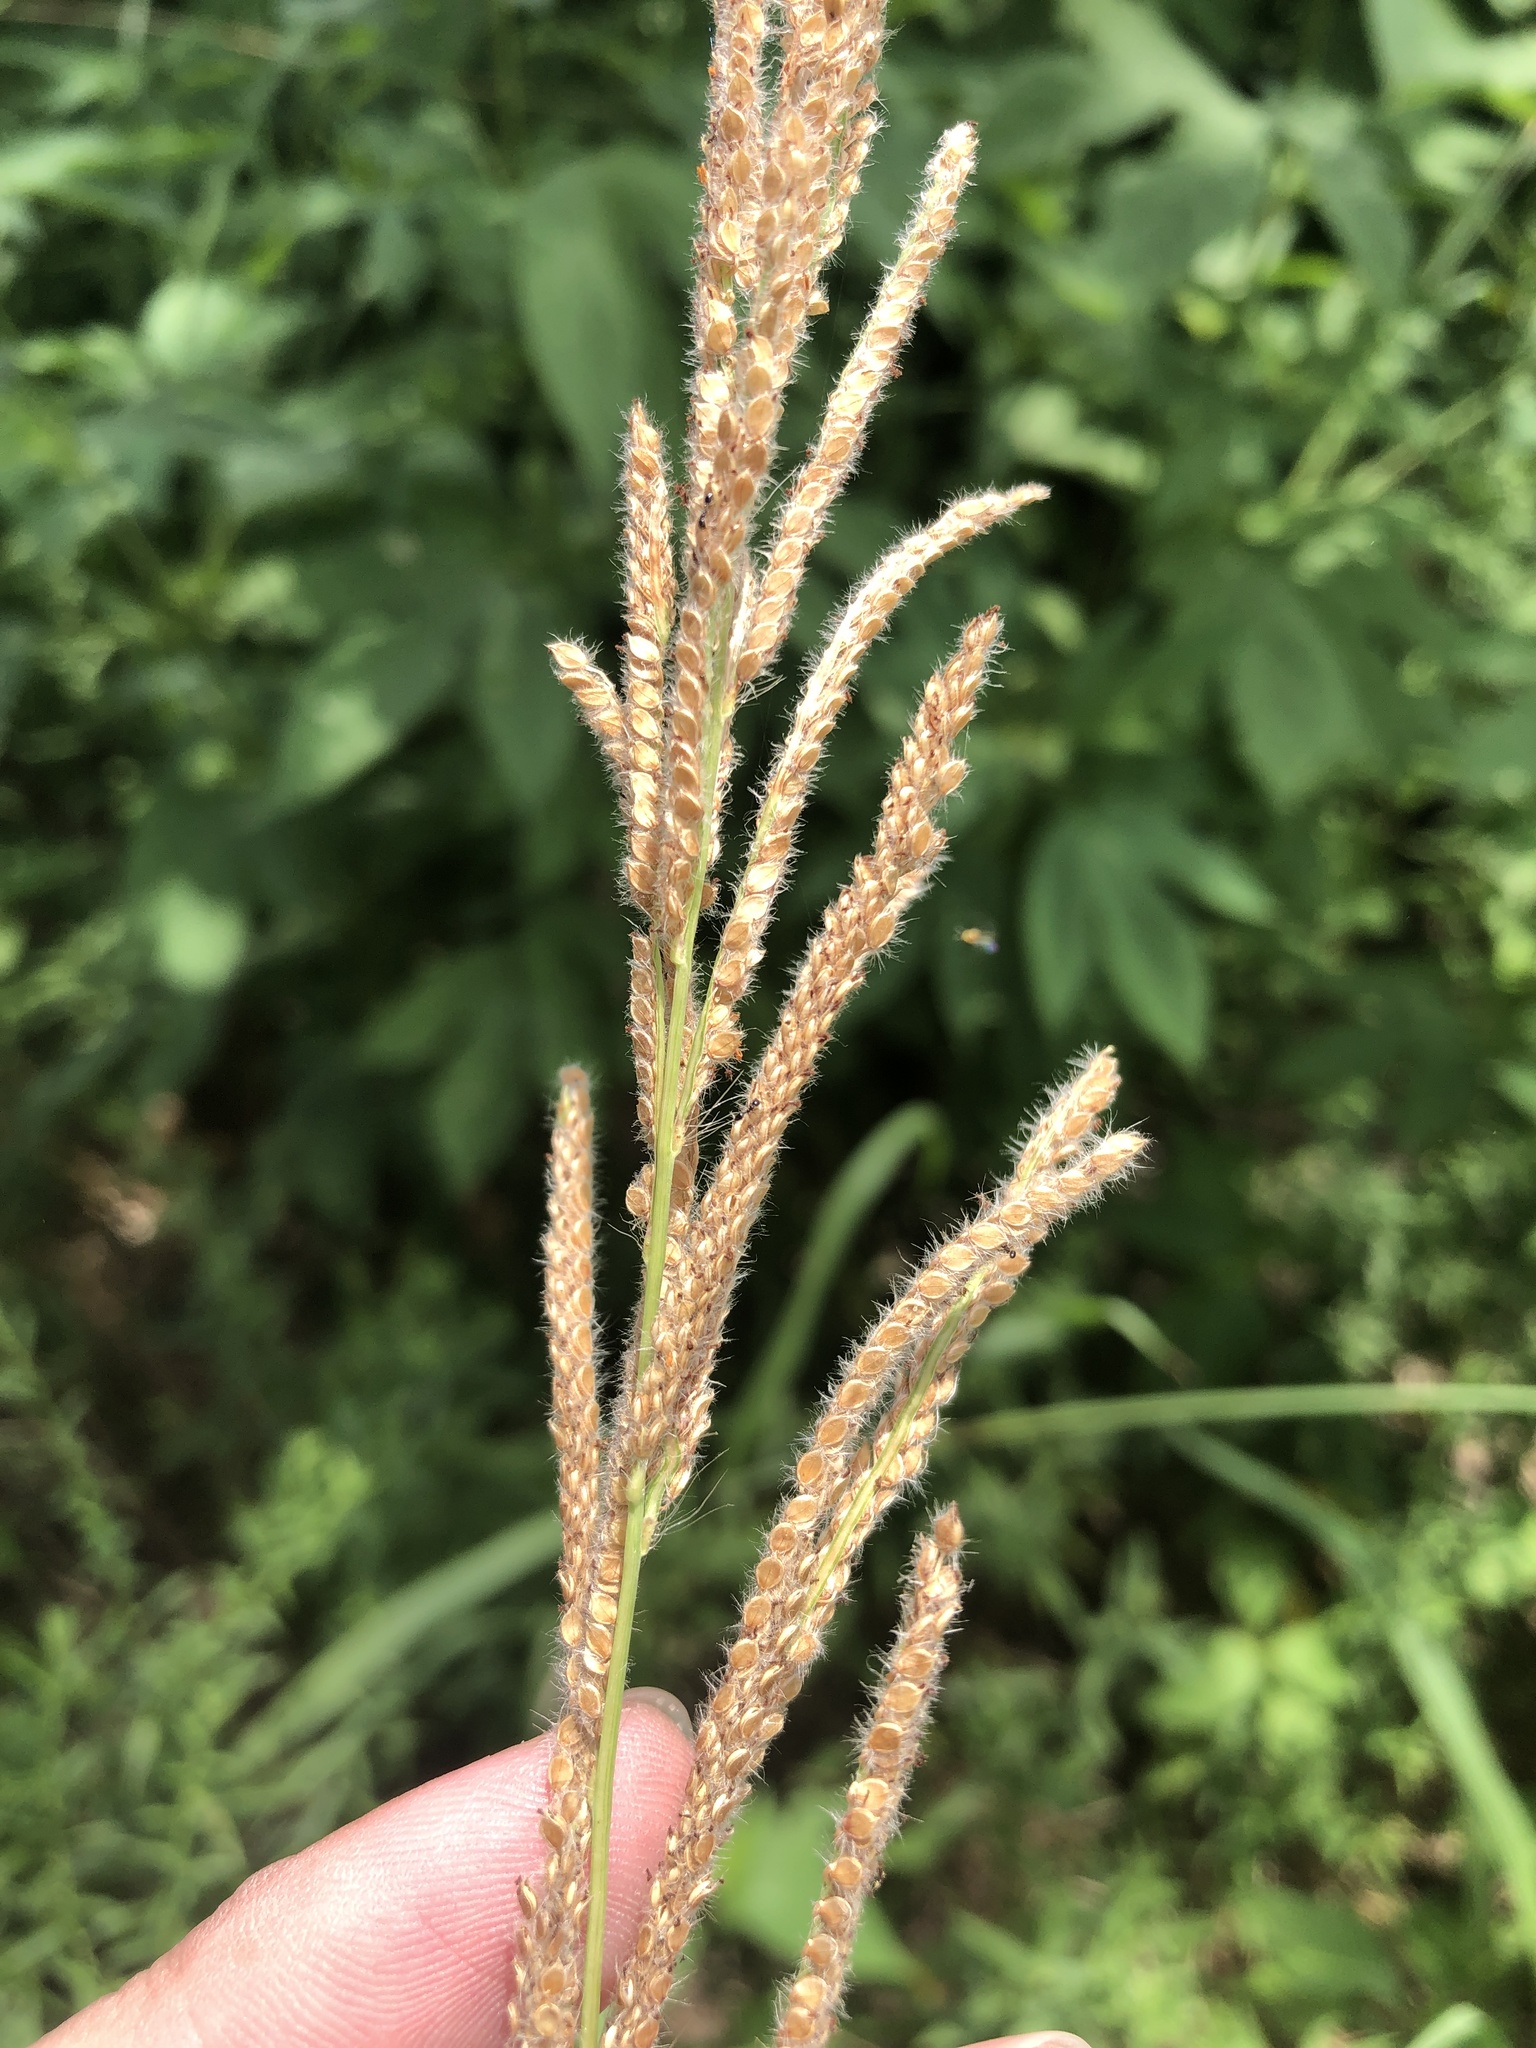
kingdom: Plantae
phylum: Tracheophyta
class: Liliopsida
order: Poales
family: Poaceae
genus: Paspalum
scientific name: Paspalum urvillei
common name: Vasey's grass
